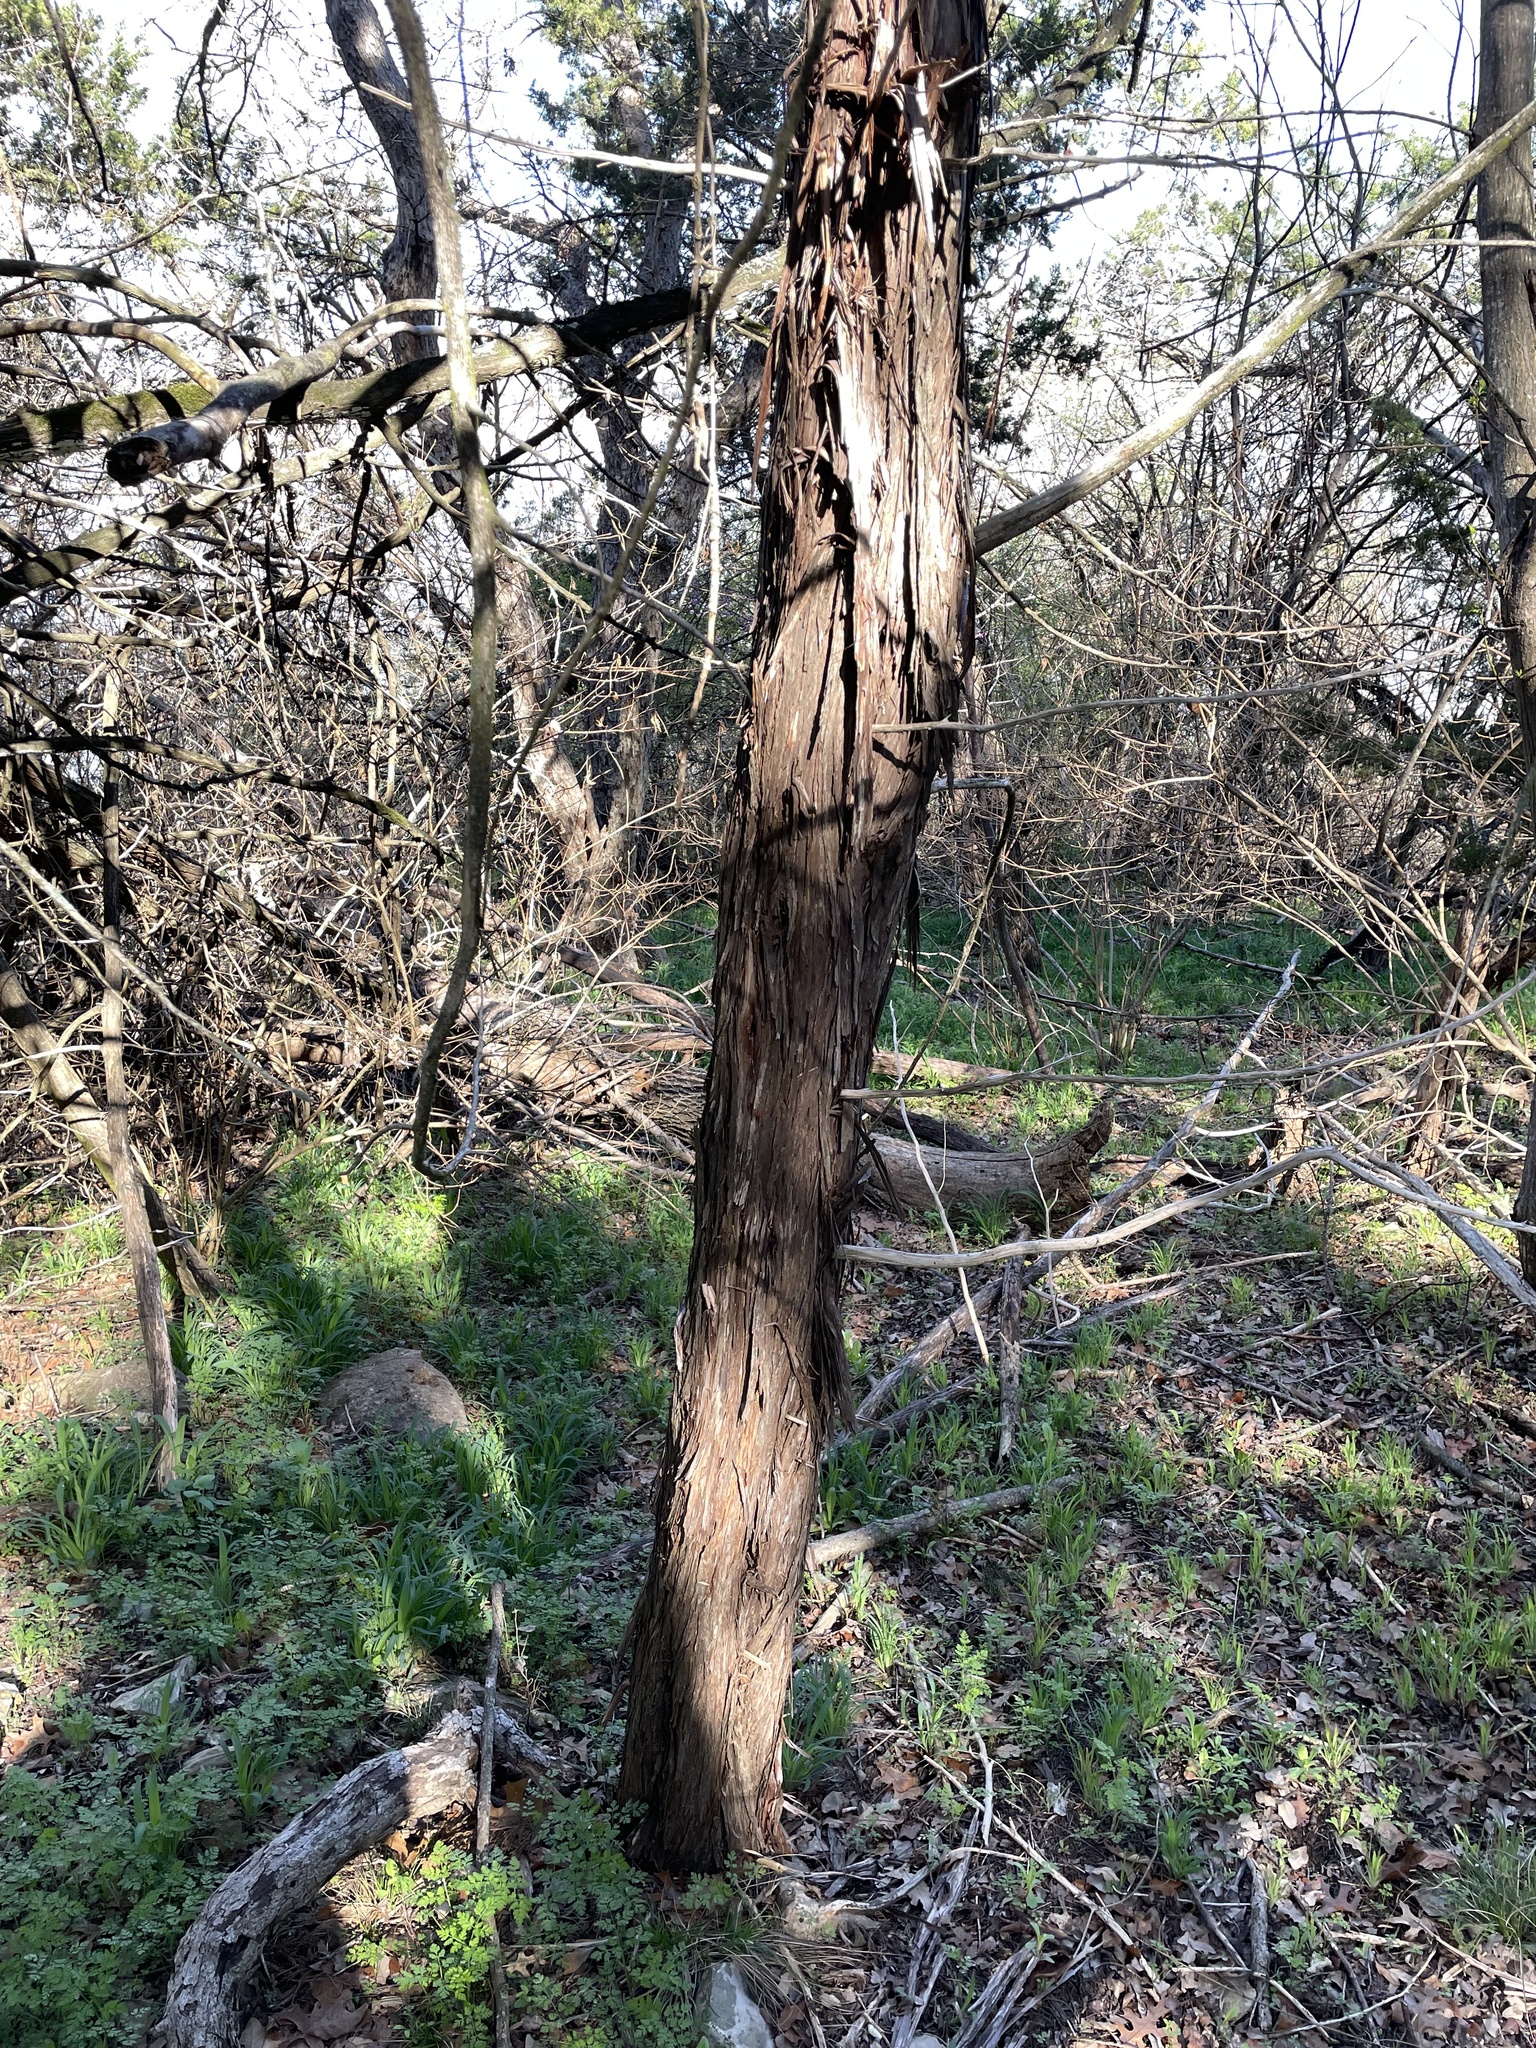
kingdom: Plantae
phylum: Tracheophyta
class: Pinopsida
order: Pinales
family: Cupressaceae
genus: Juniperus
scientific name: Juniperus ashei
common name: Mexican juniper
